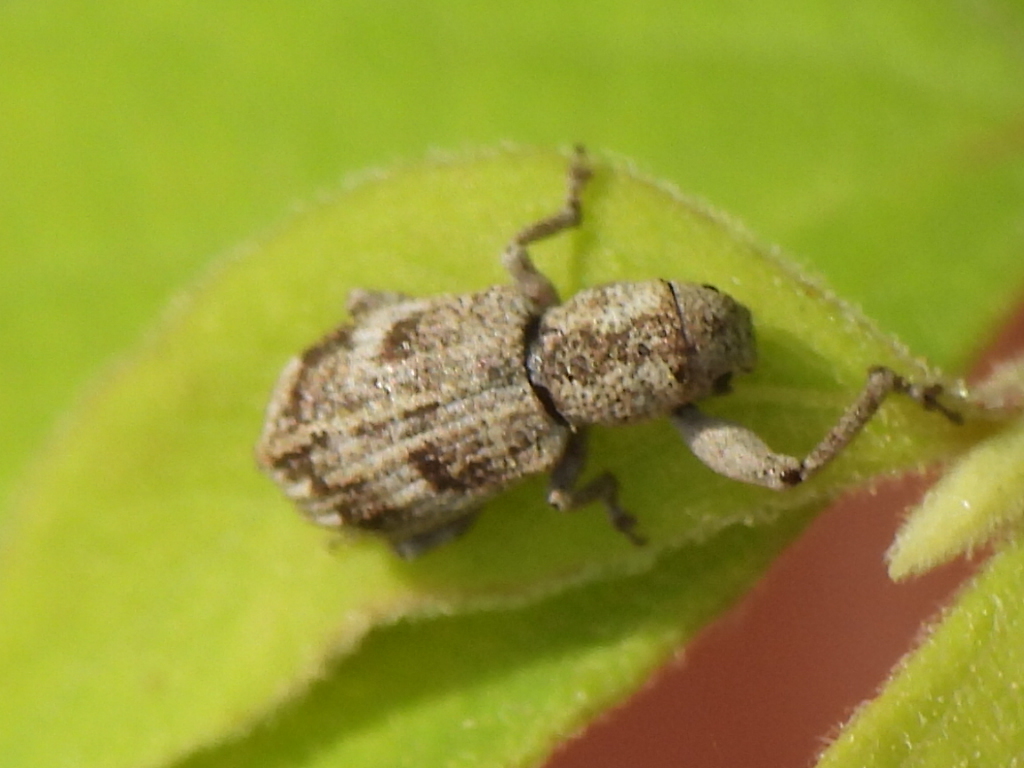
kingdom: Animalia
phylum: Arthropoda
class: Insecta
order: Coleoptera
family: Curculionidae
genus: Pandeleteius
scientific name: Pandeleteius cinereus
